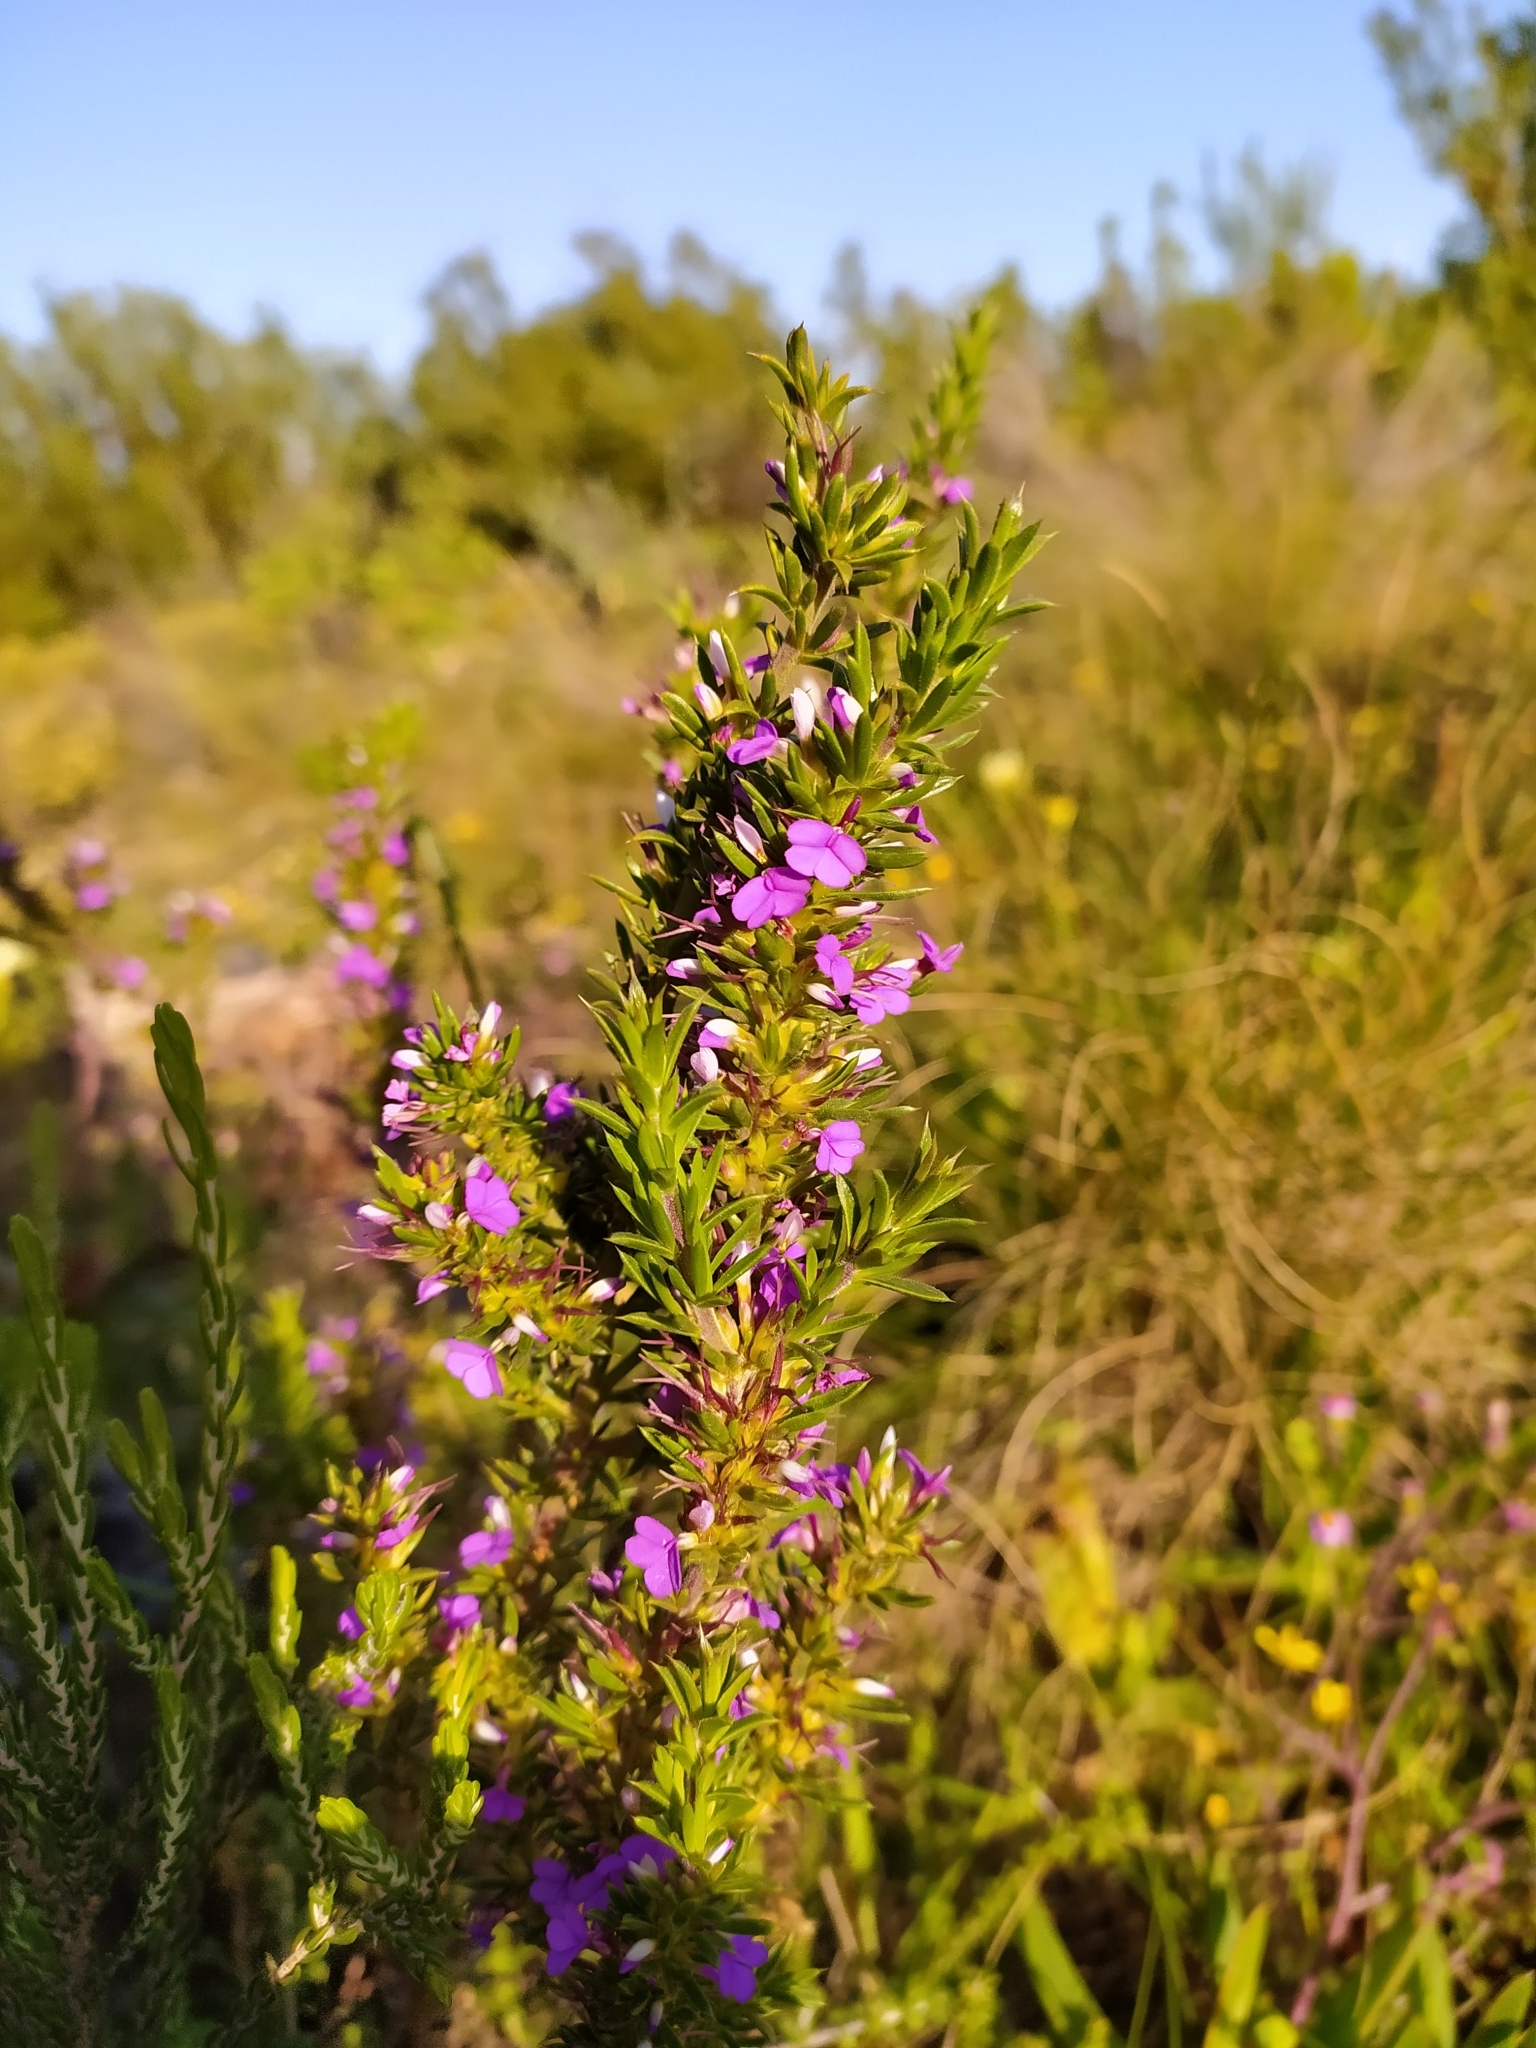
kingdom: Plantae
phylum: Tracheophyta
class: Magnoliopsida
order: Fabales
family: Polygalaceae
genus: Muraltia
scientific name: Muraltia heisteria
